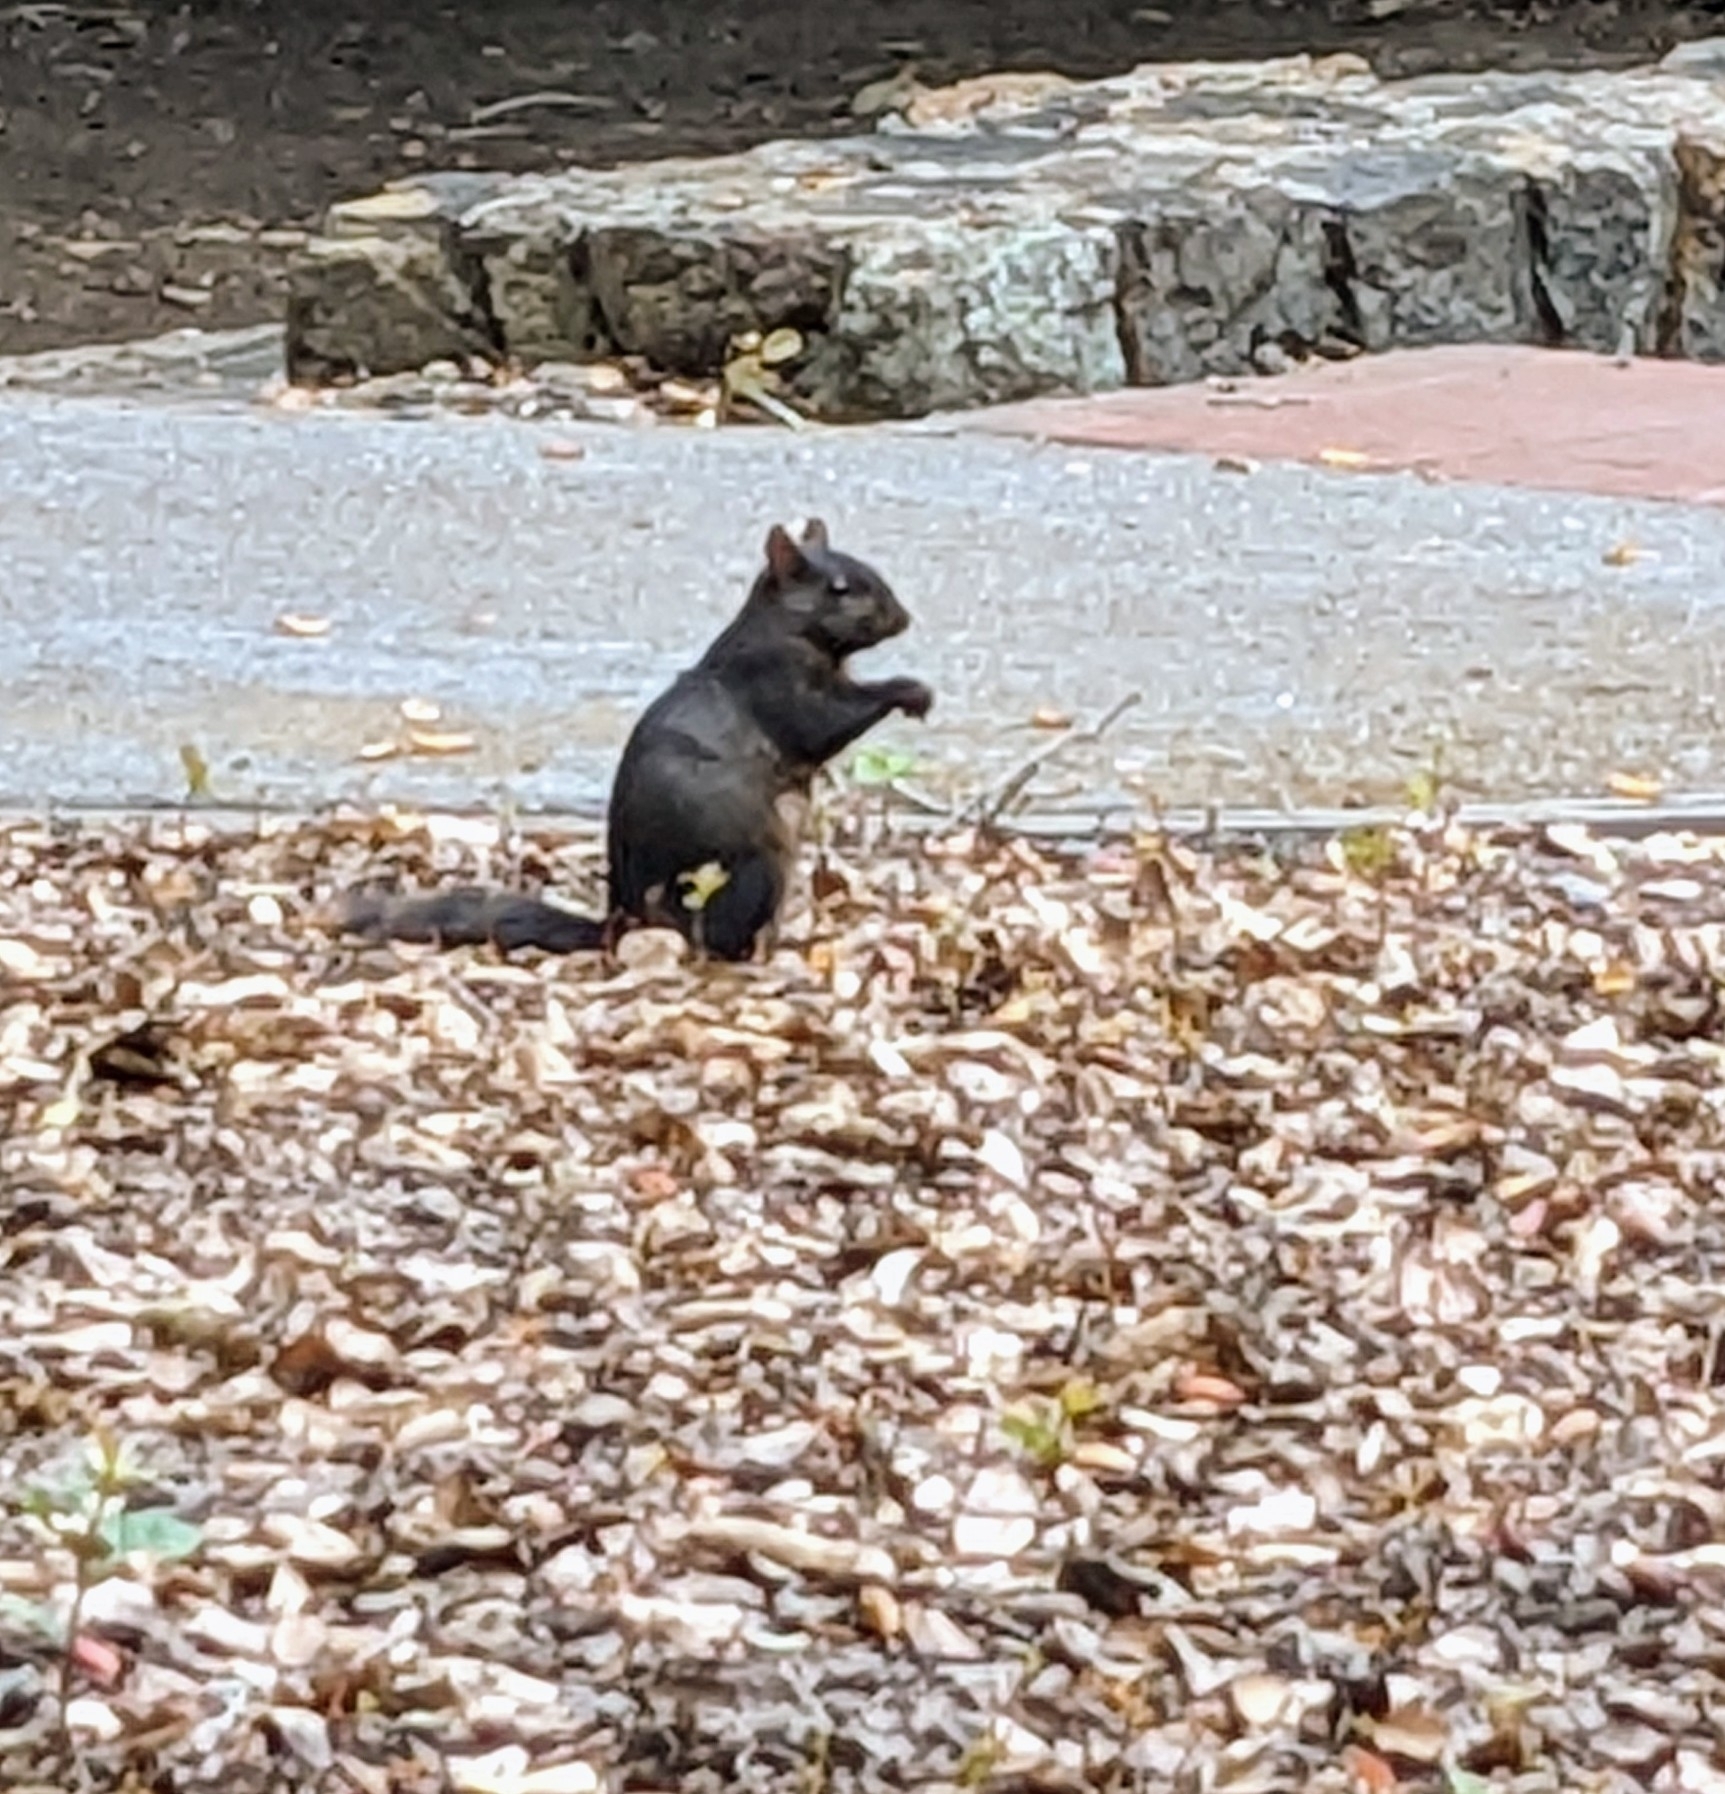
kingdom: Animalia
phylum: Chordata
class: Mammalia
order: Rodentia
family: Sciuridae
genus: Sciurus
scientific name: Sciurus carolinensis
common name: Eastern gray squirrel
